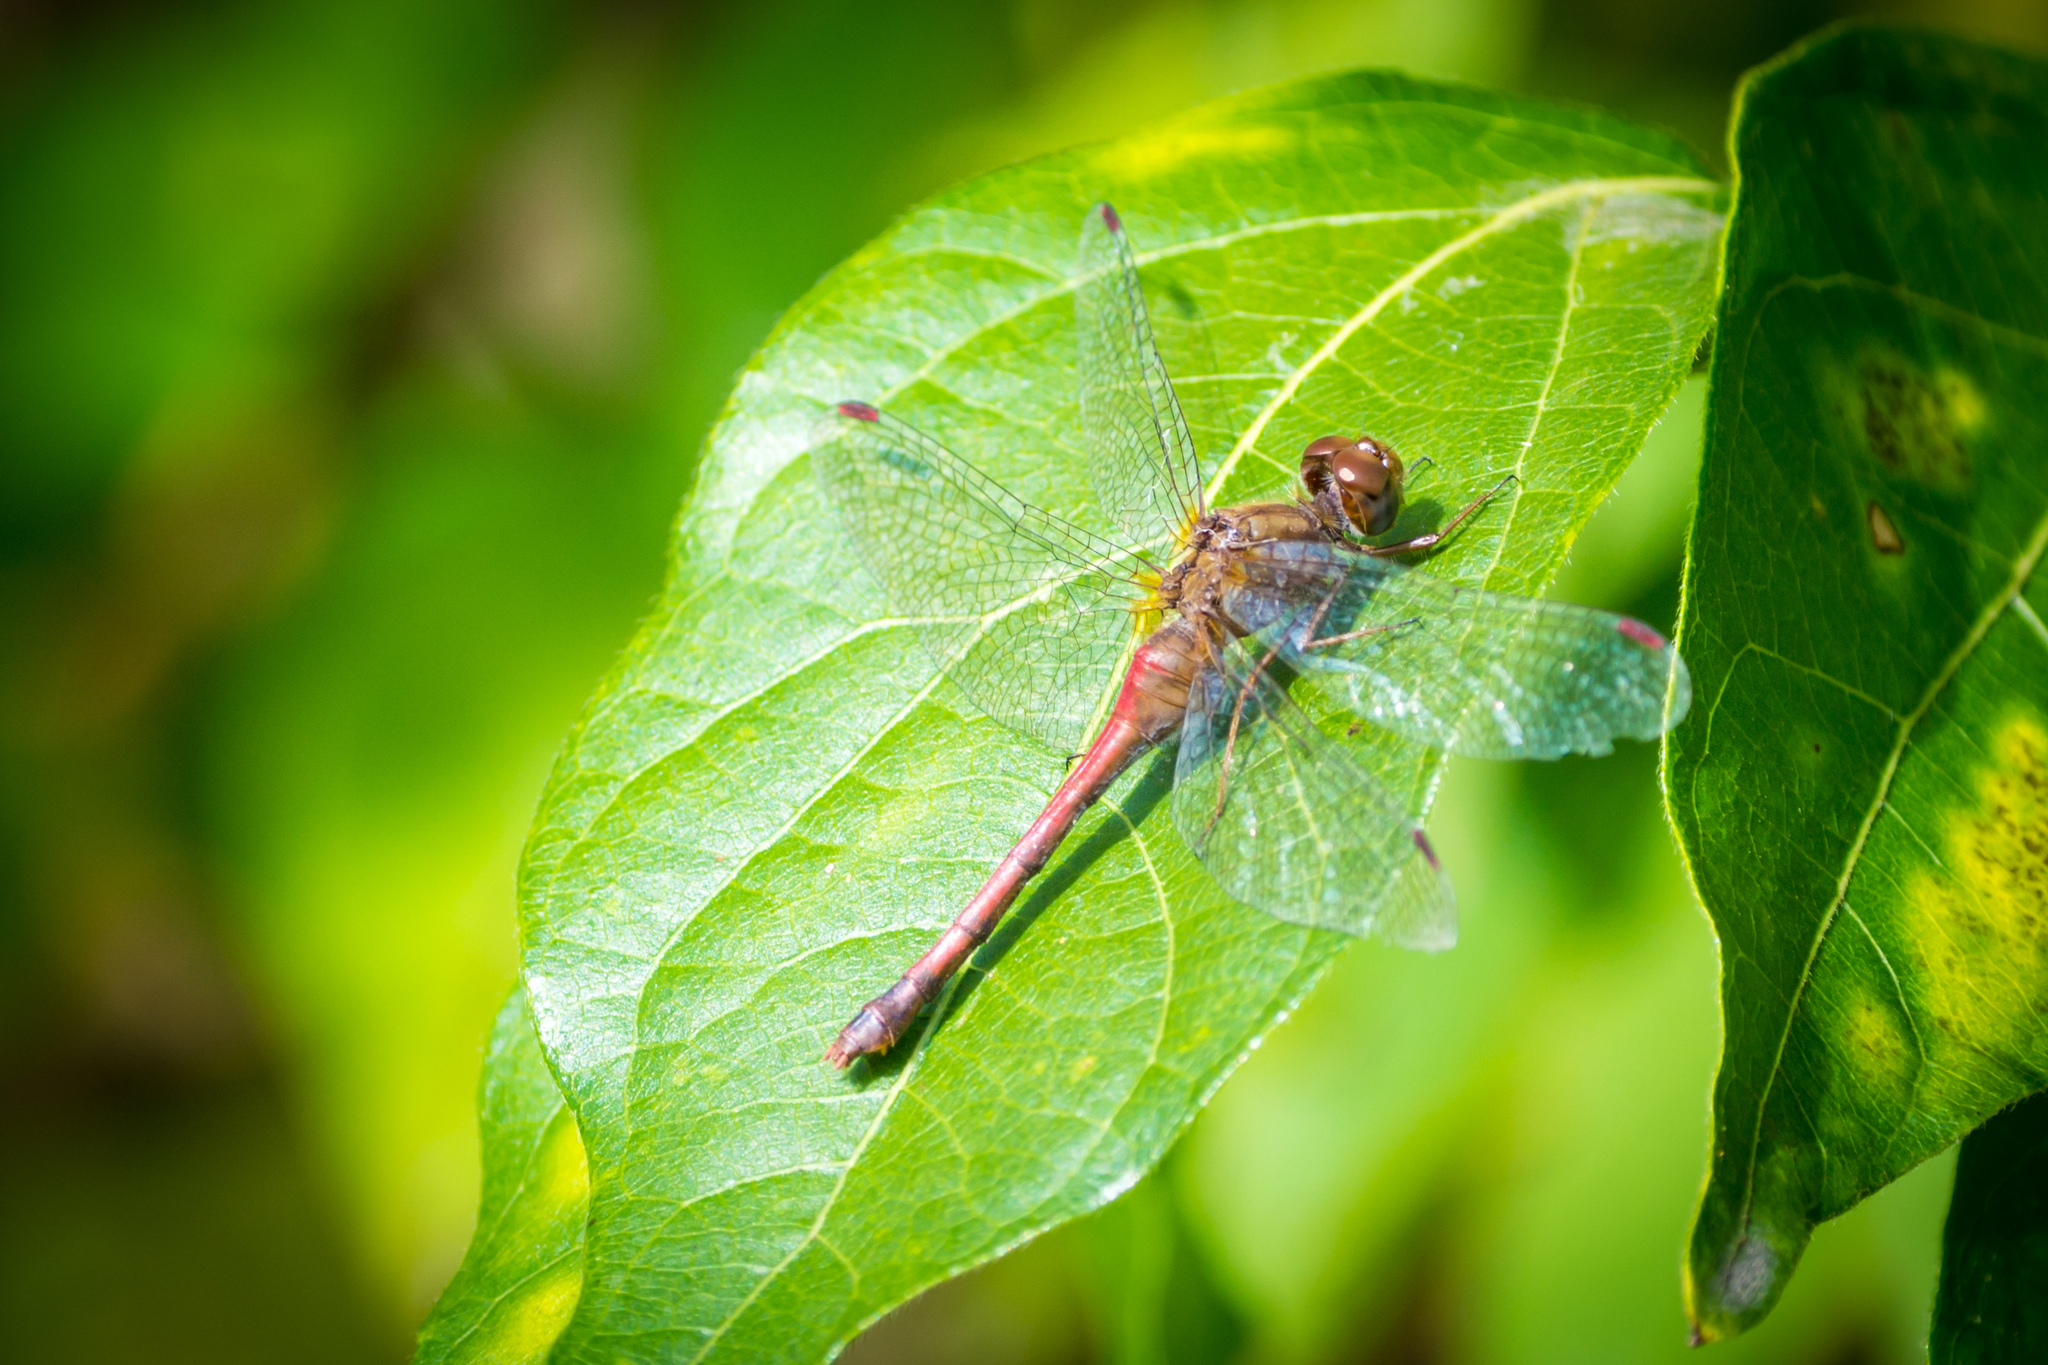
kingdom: Animalia
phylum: Arthropoda
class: Insecta
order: Odonata
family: Libellulidae
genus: Sympetrum
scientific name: Sympetrum vicinum
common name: Autumn meadowhawk
